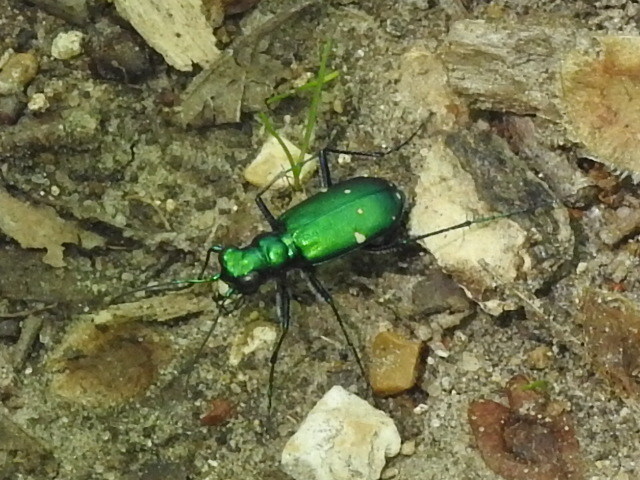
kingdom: Animalia
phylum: Arthropoda
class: Insecta
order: Coleoptera
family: Carabidae
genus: Cicindela
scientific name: Cicindela sexguttata
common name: Six-spotted tiger beetle
